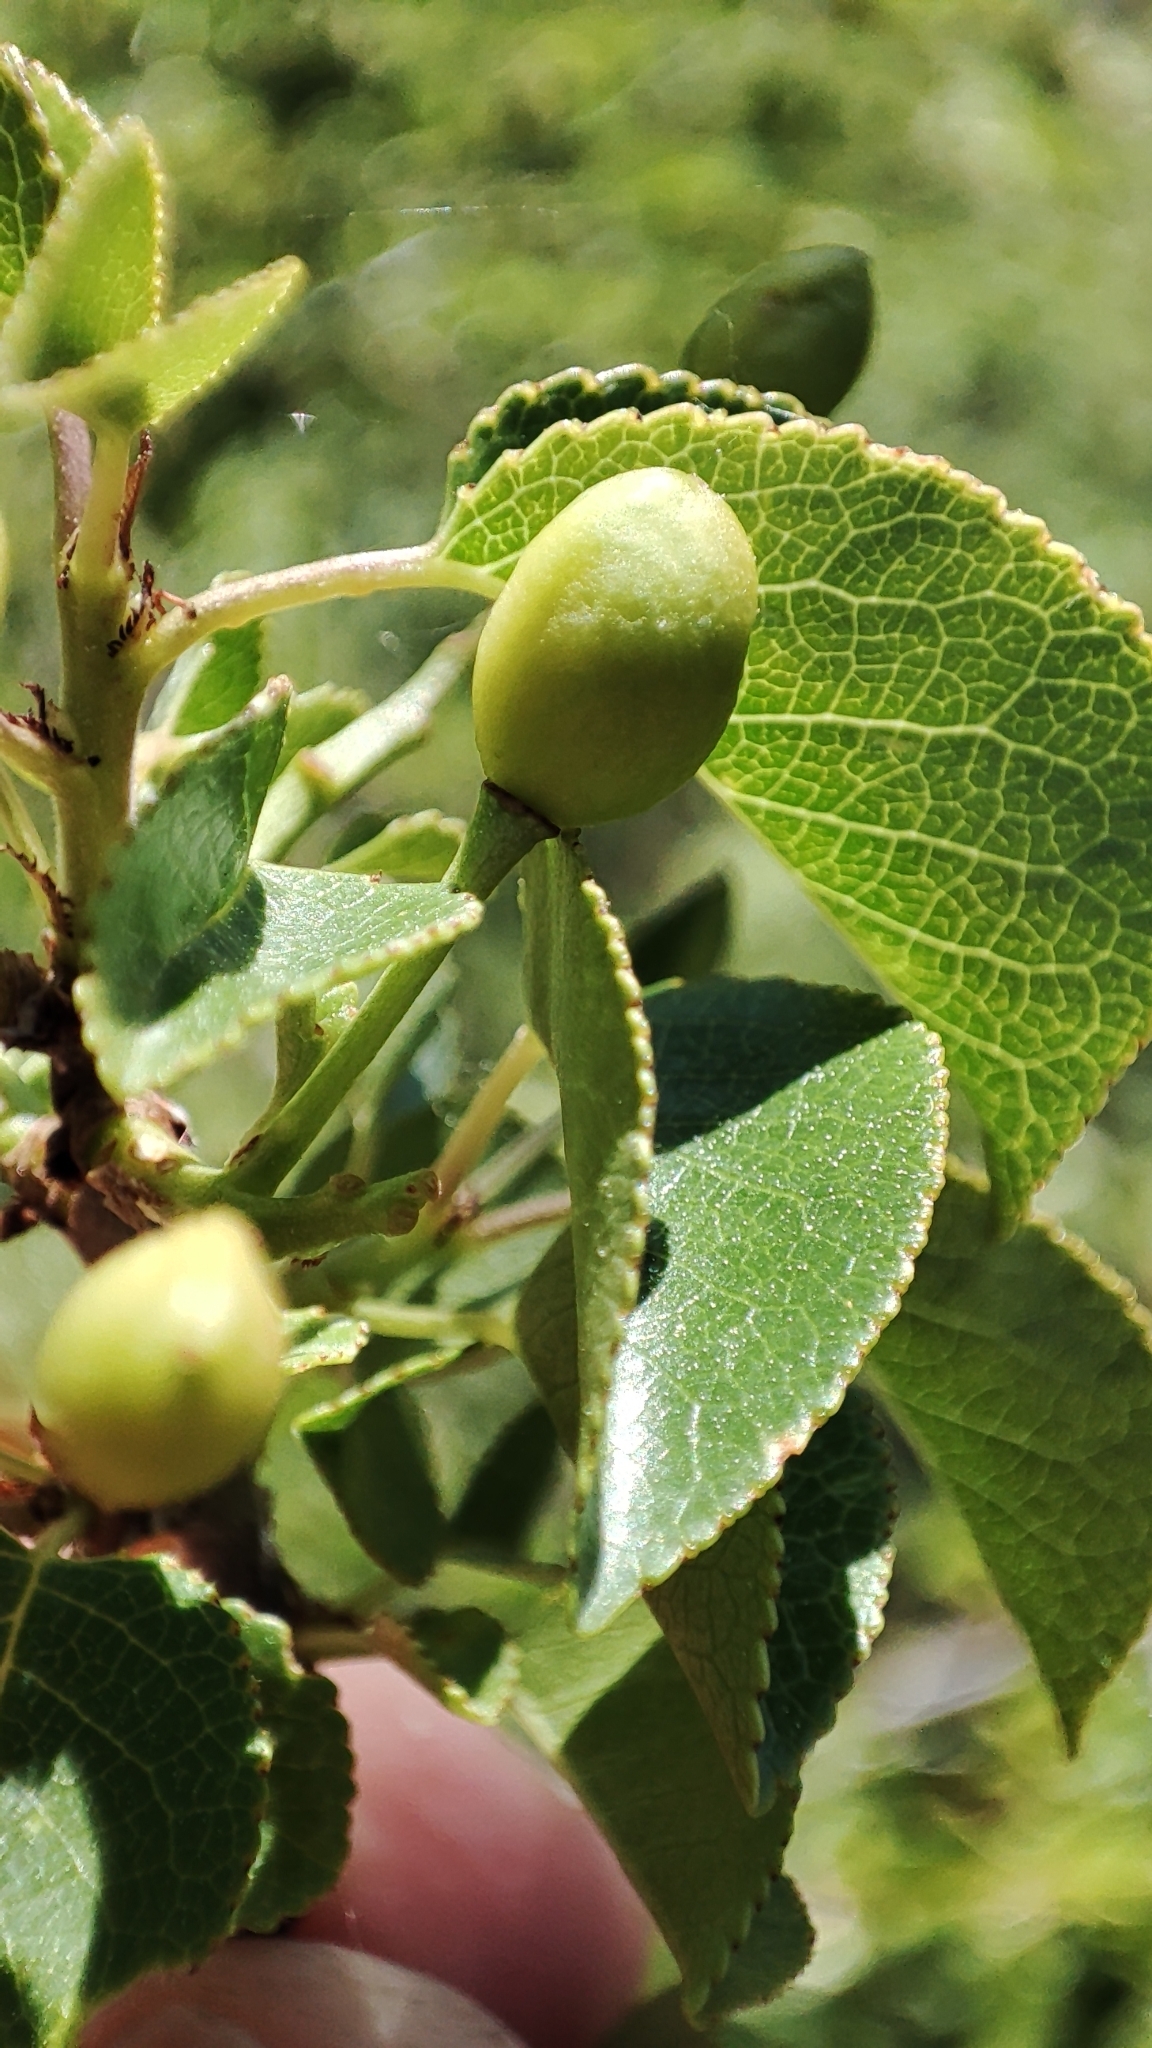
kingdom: Plantae
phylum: Tracheophyta
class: Magnoliopsida
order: Rosales
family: Rosaceae
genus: Prunus
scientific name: Prunus mahaleb
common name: Mahaleb cherry
